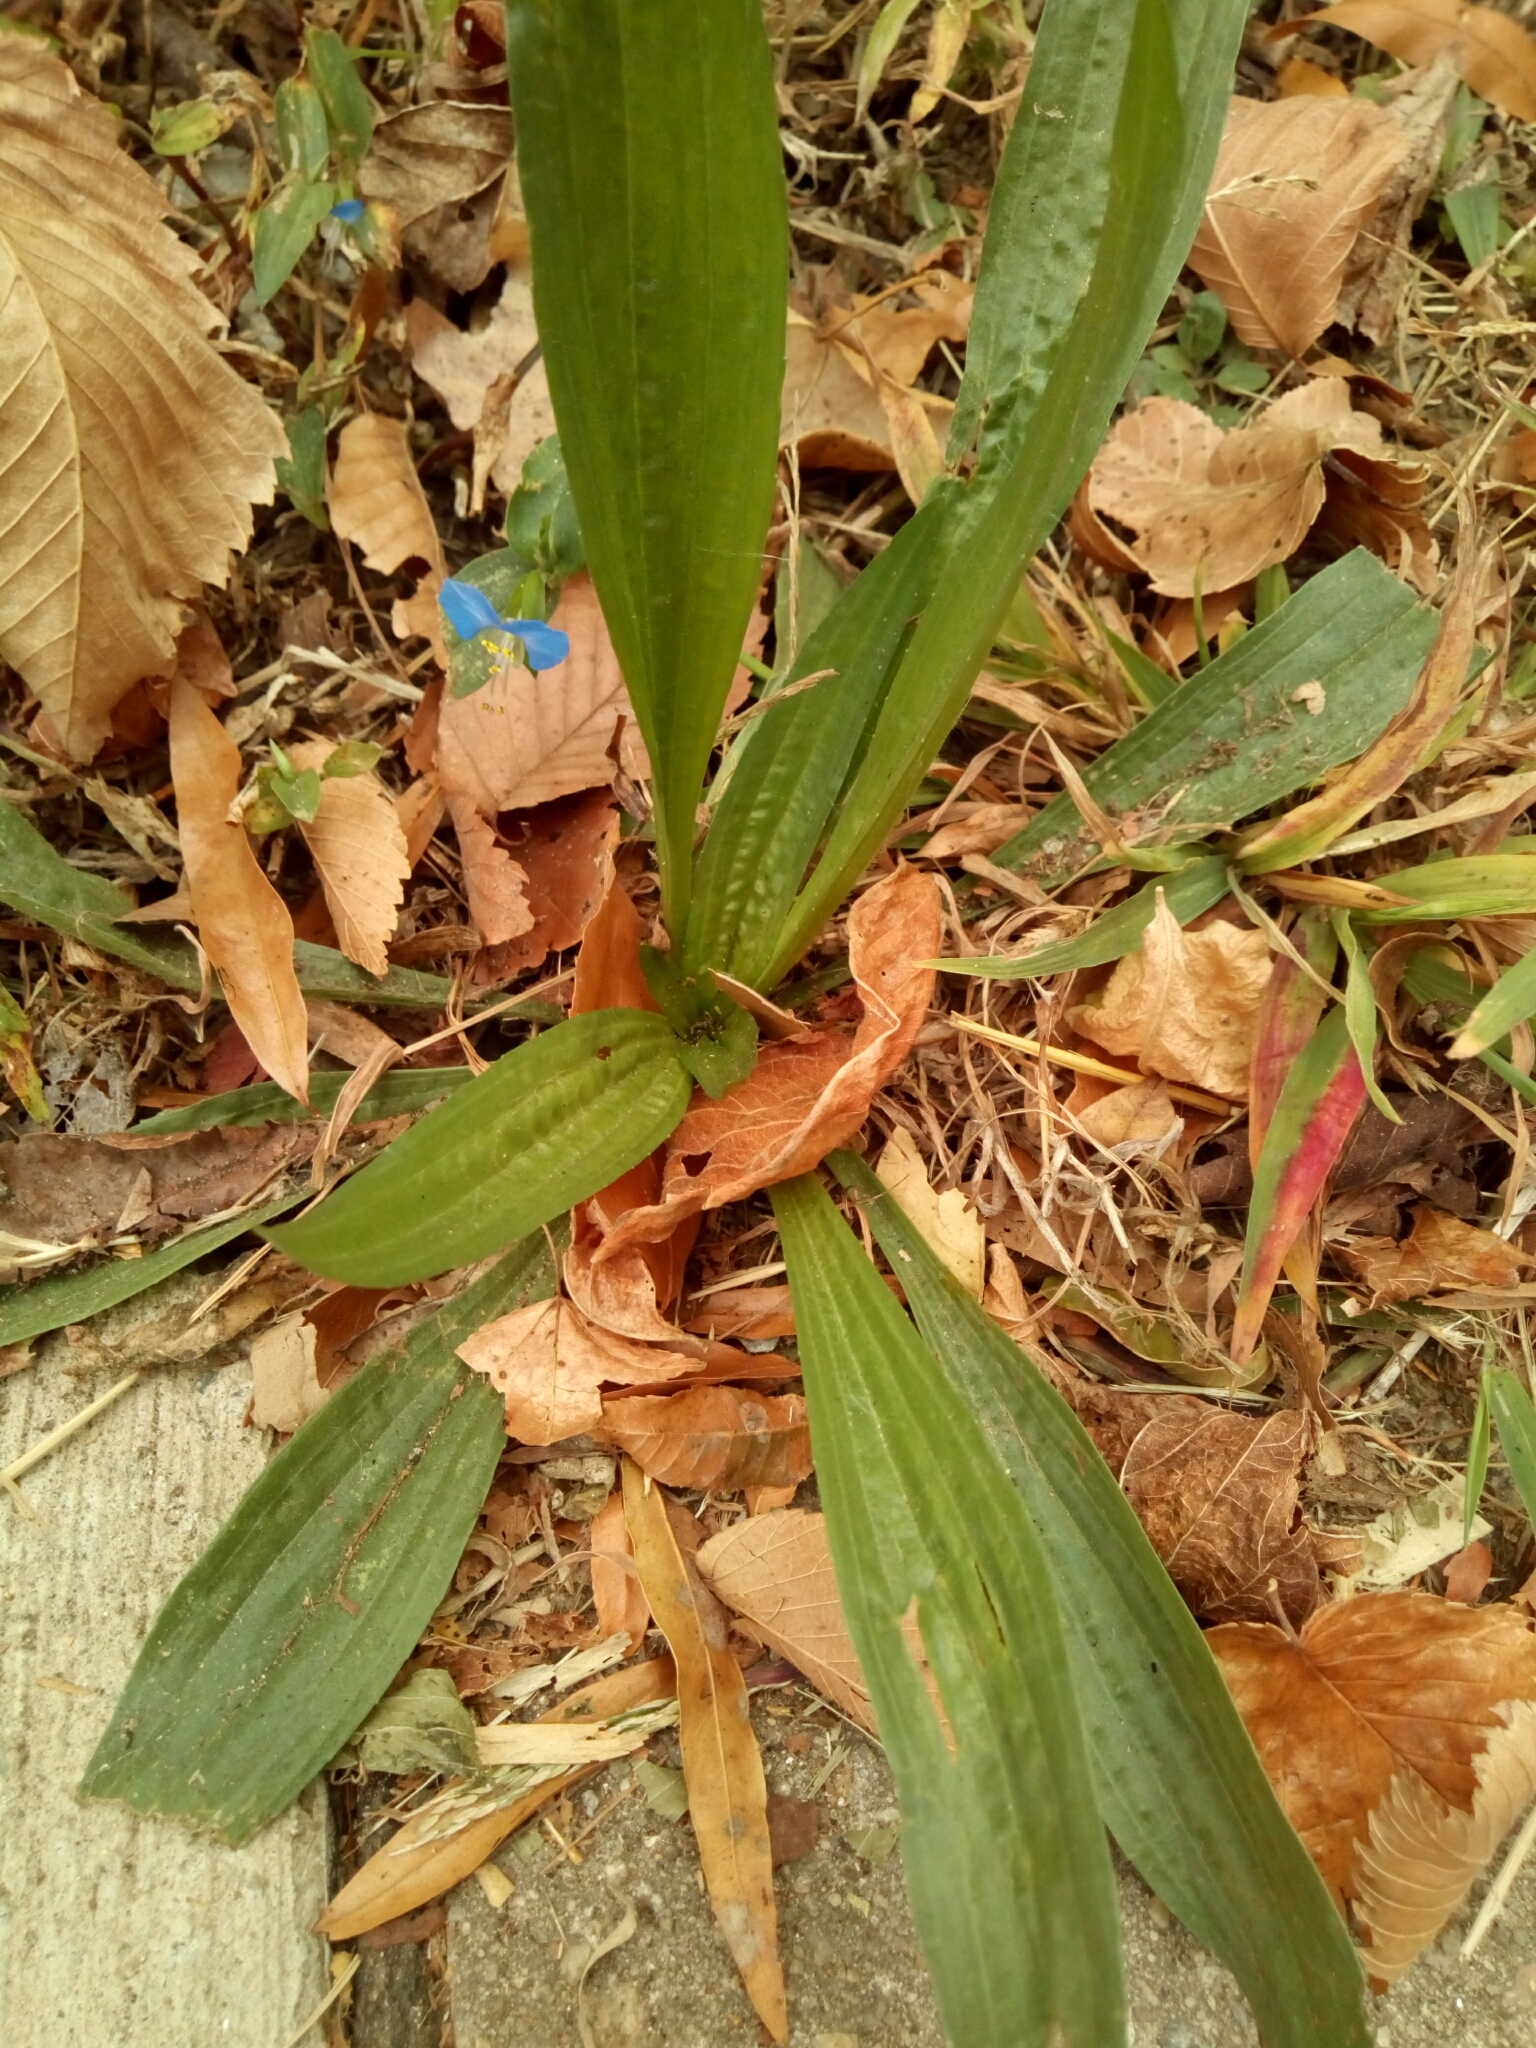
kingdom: Plantae
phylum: Tracheophyta
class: Magnoliopsida
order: Lamiales
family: Plantaginaceae
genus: Plantago
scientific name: Plantago lanceolata
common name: Ribwort plantain
